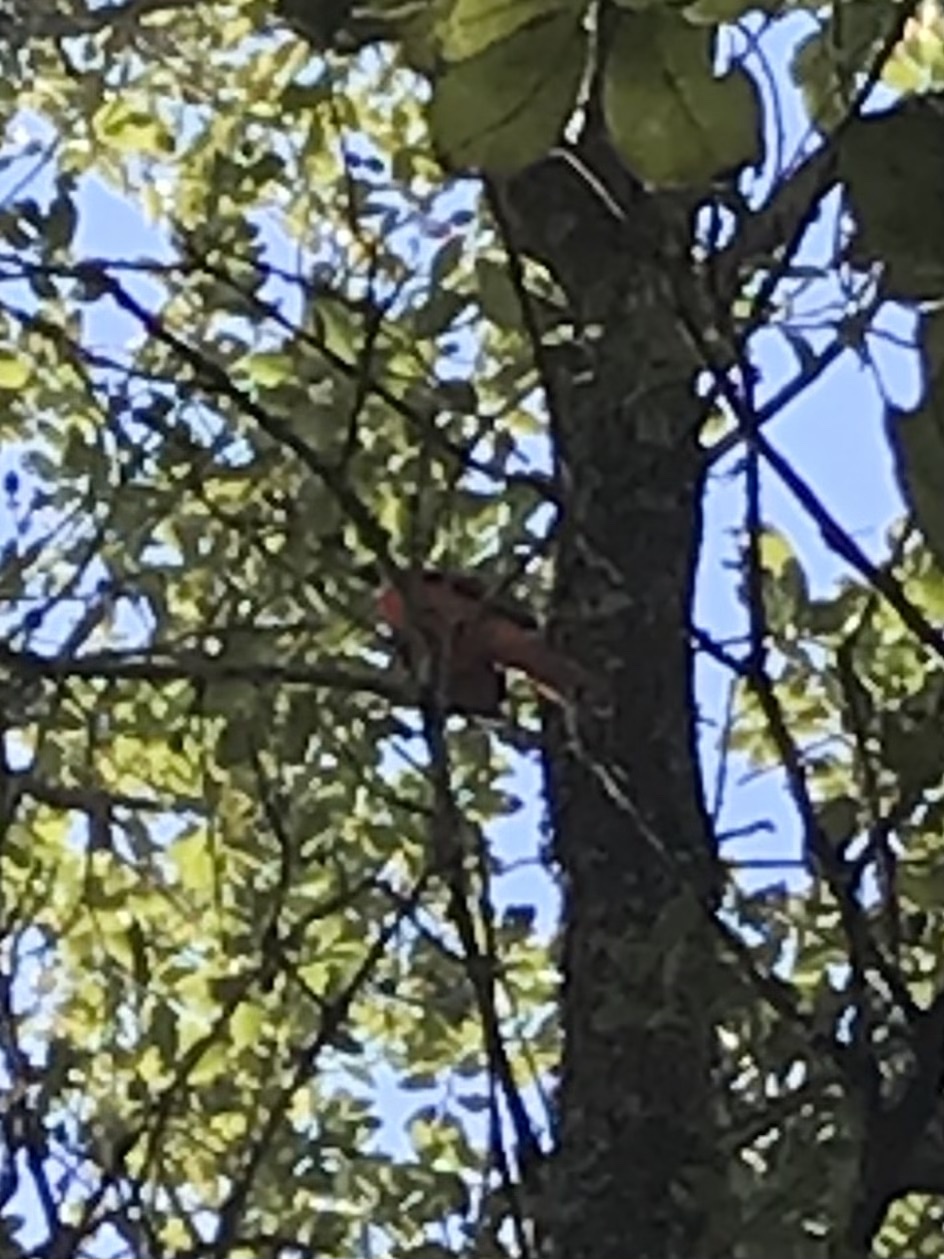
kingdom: Animalia
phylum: Chordata
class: Aves
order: Passeriformes
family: Cardinalidae
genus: Cardinalis
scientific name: Cardinalis cardinalis
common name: Northern cardinal
